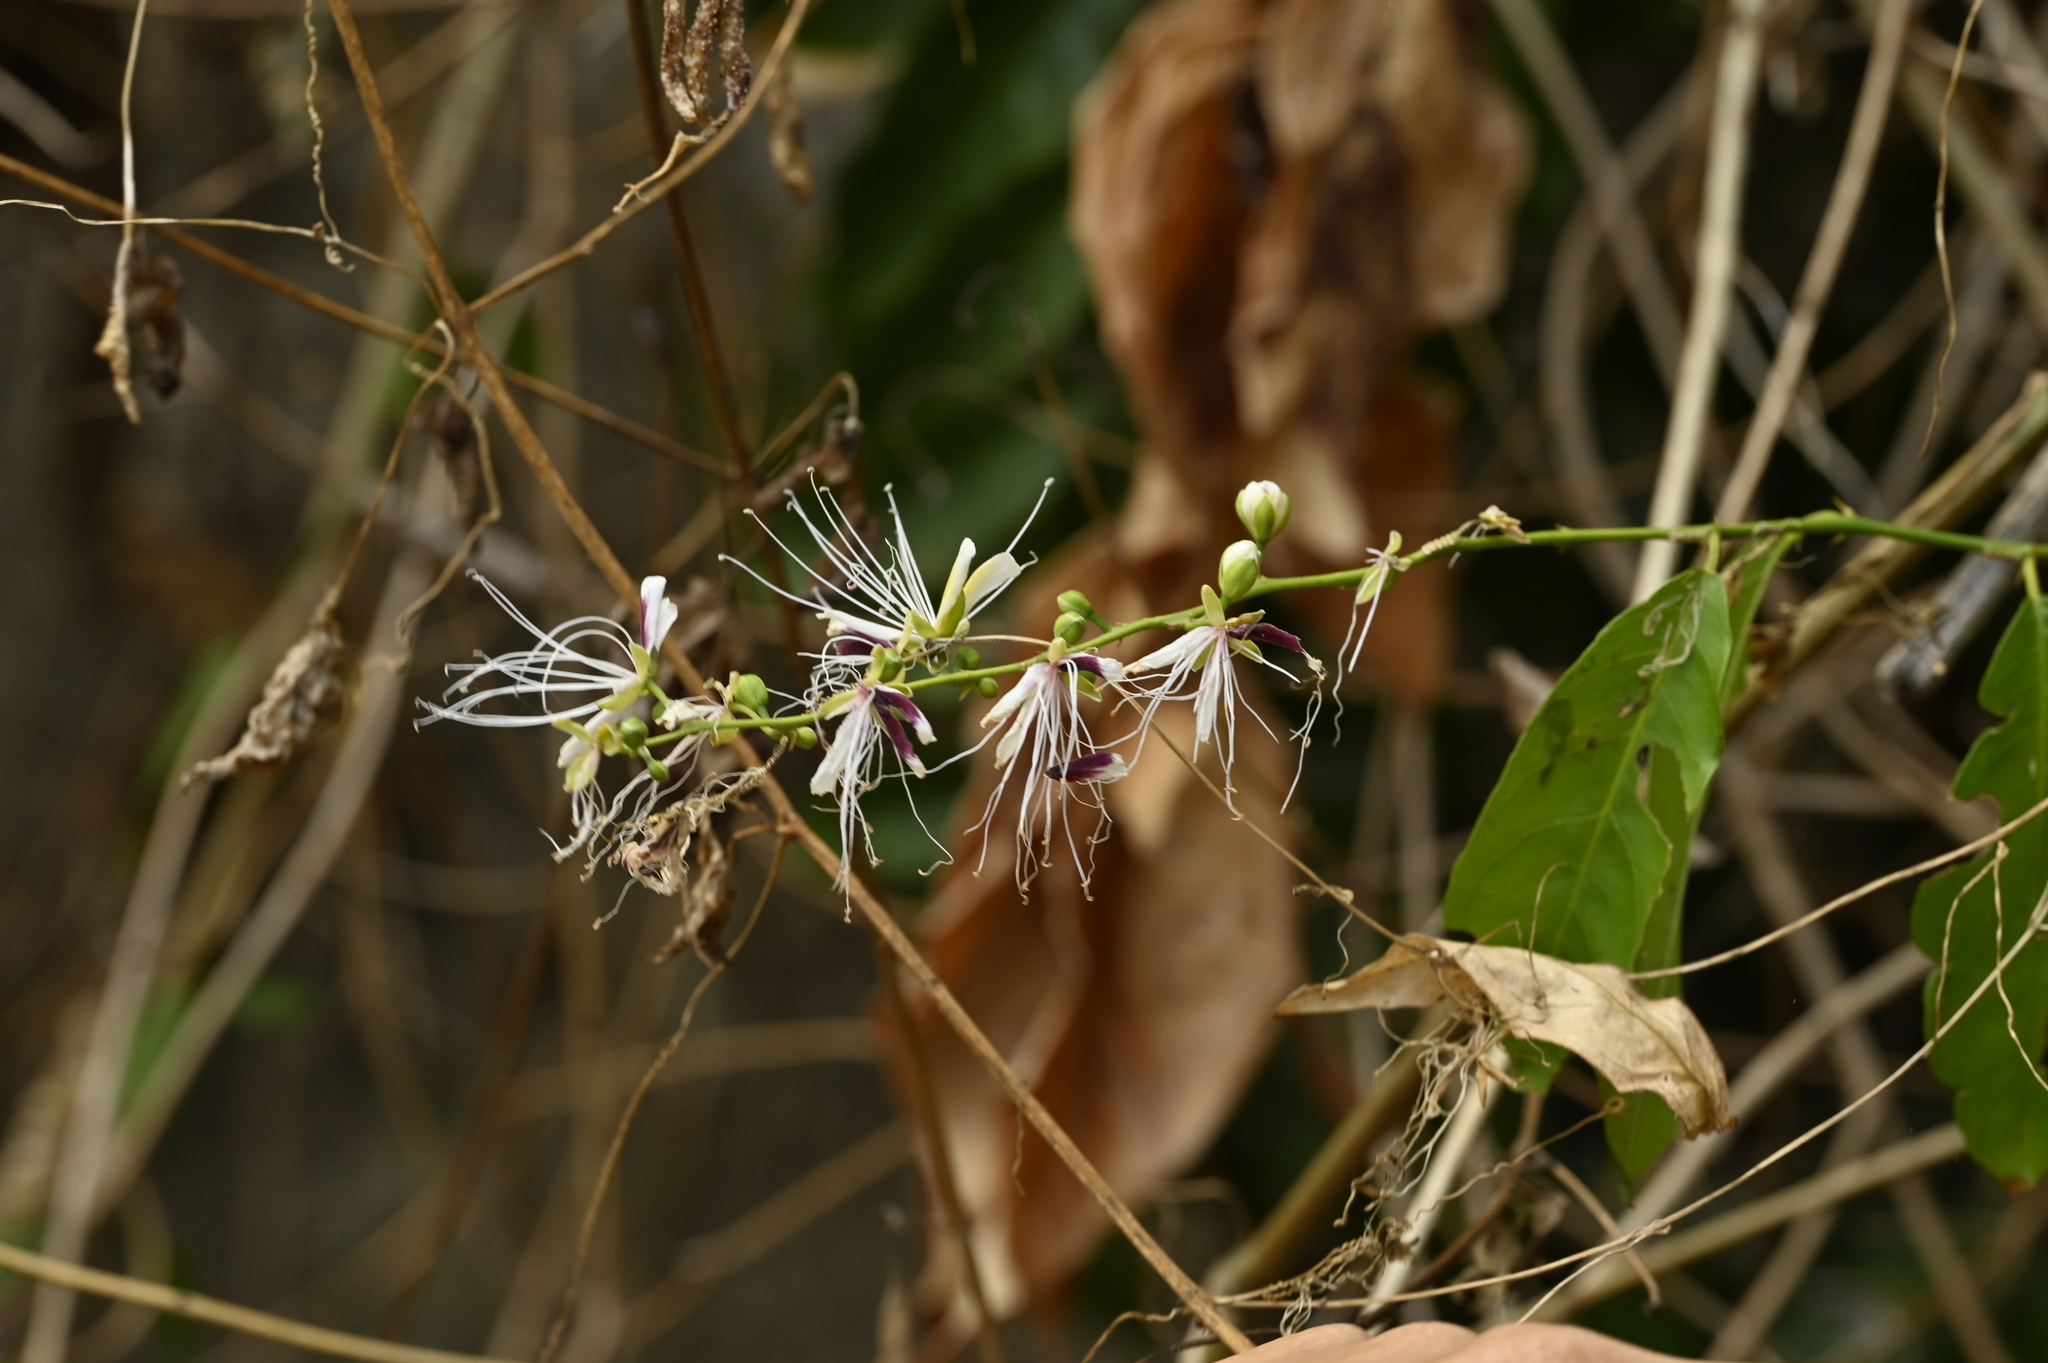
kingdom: Plantae
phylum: Tracheophyta
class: Magnoliopsida
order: Brassicales
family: Capparaceae
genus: Capparis
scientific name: Capparis micracantha
